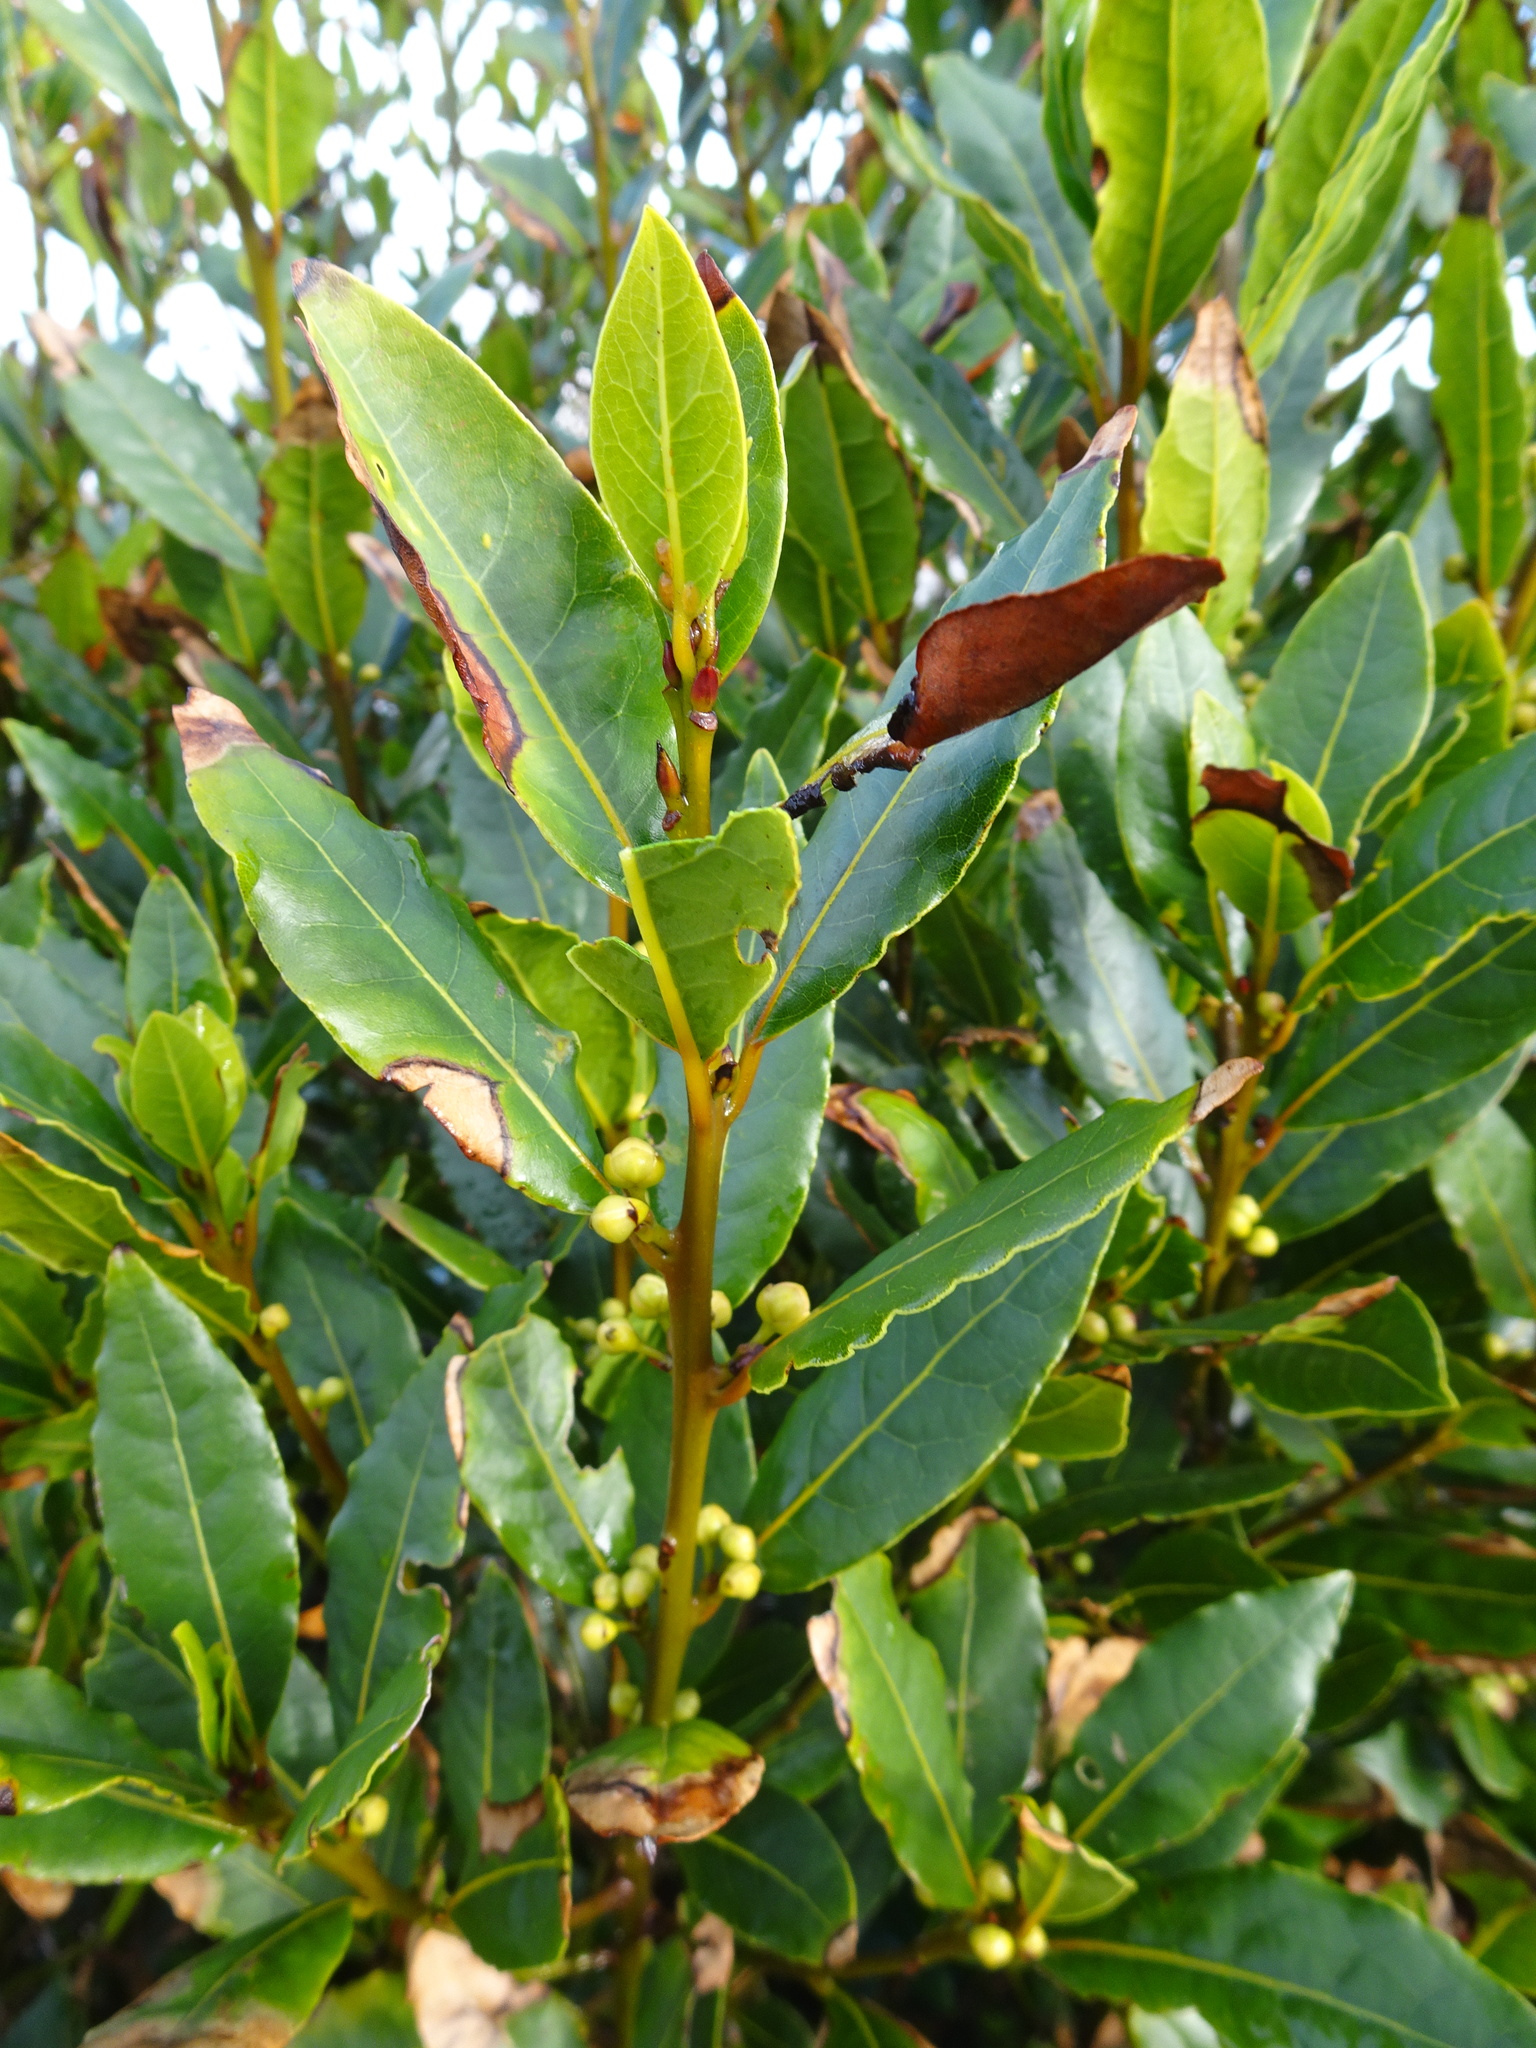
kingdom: Plantae
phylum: Tracheophyta
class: Magnoliopsida
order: Laurales
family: Lauraceae
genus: Laurus
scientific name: Laurus nobilis
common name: Bay
